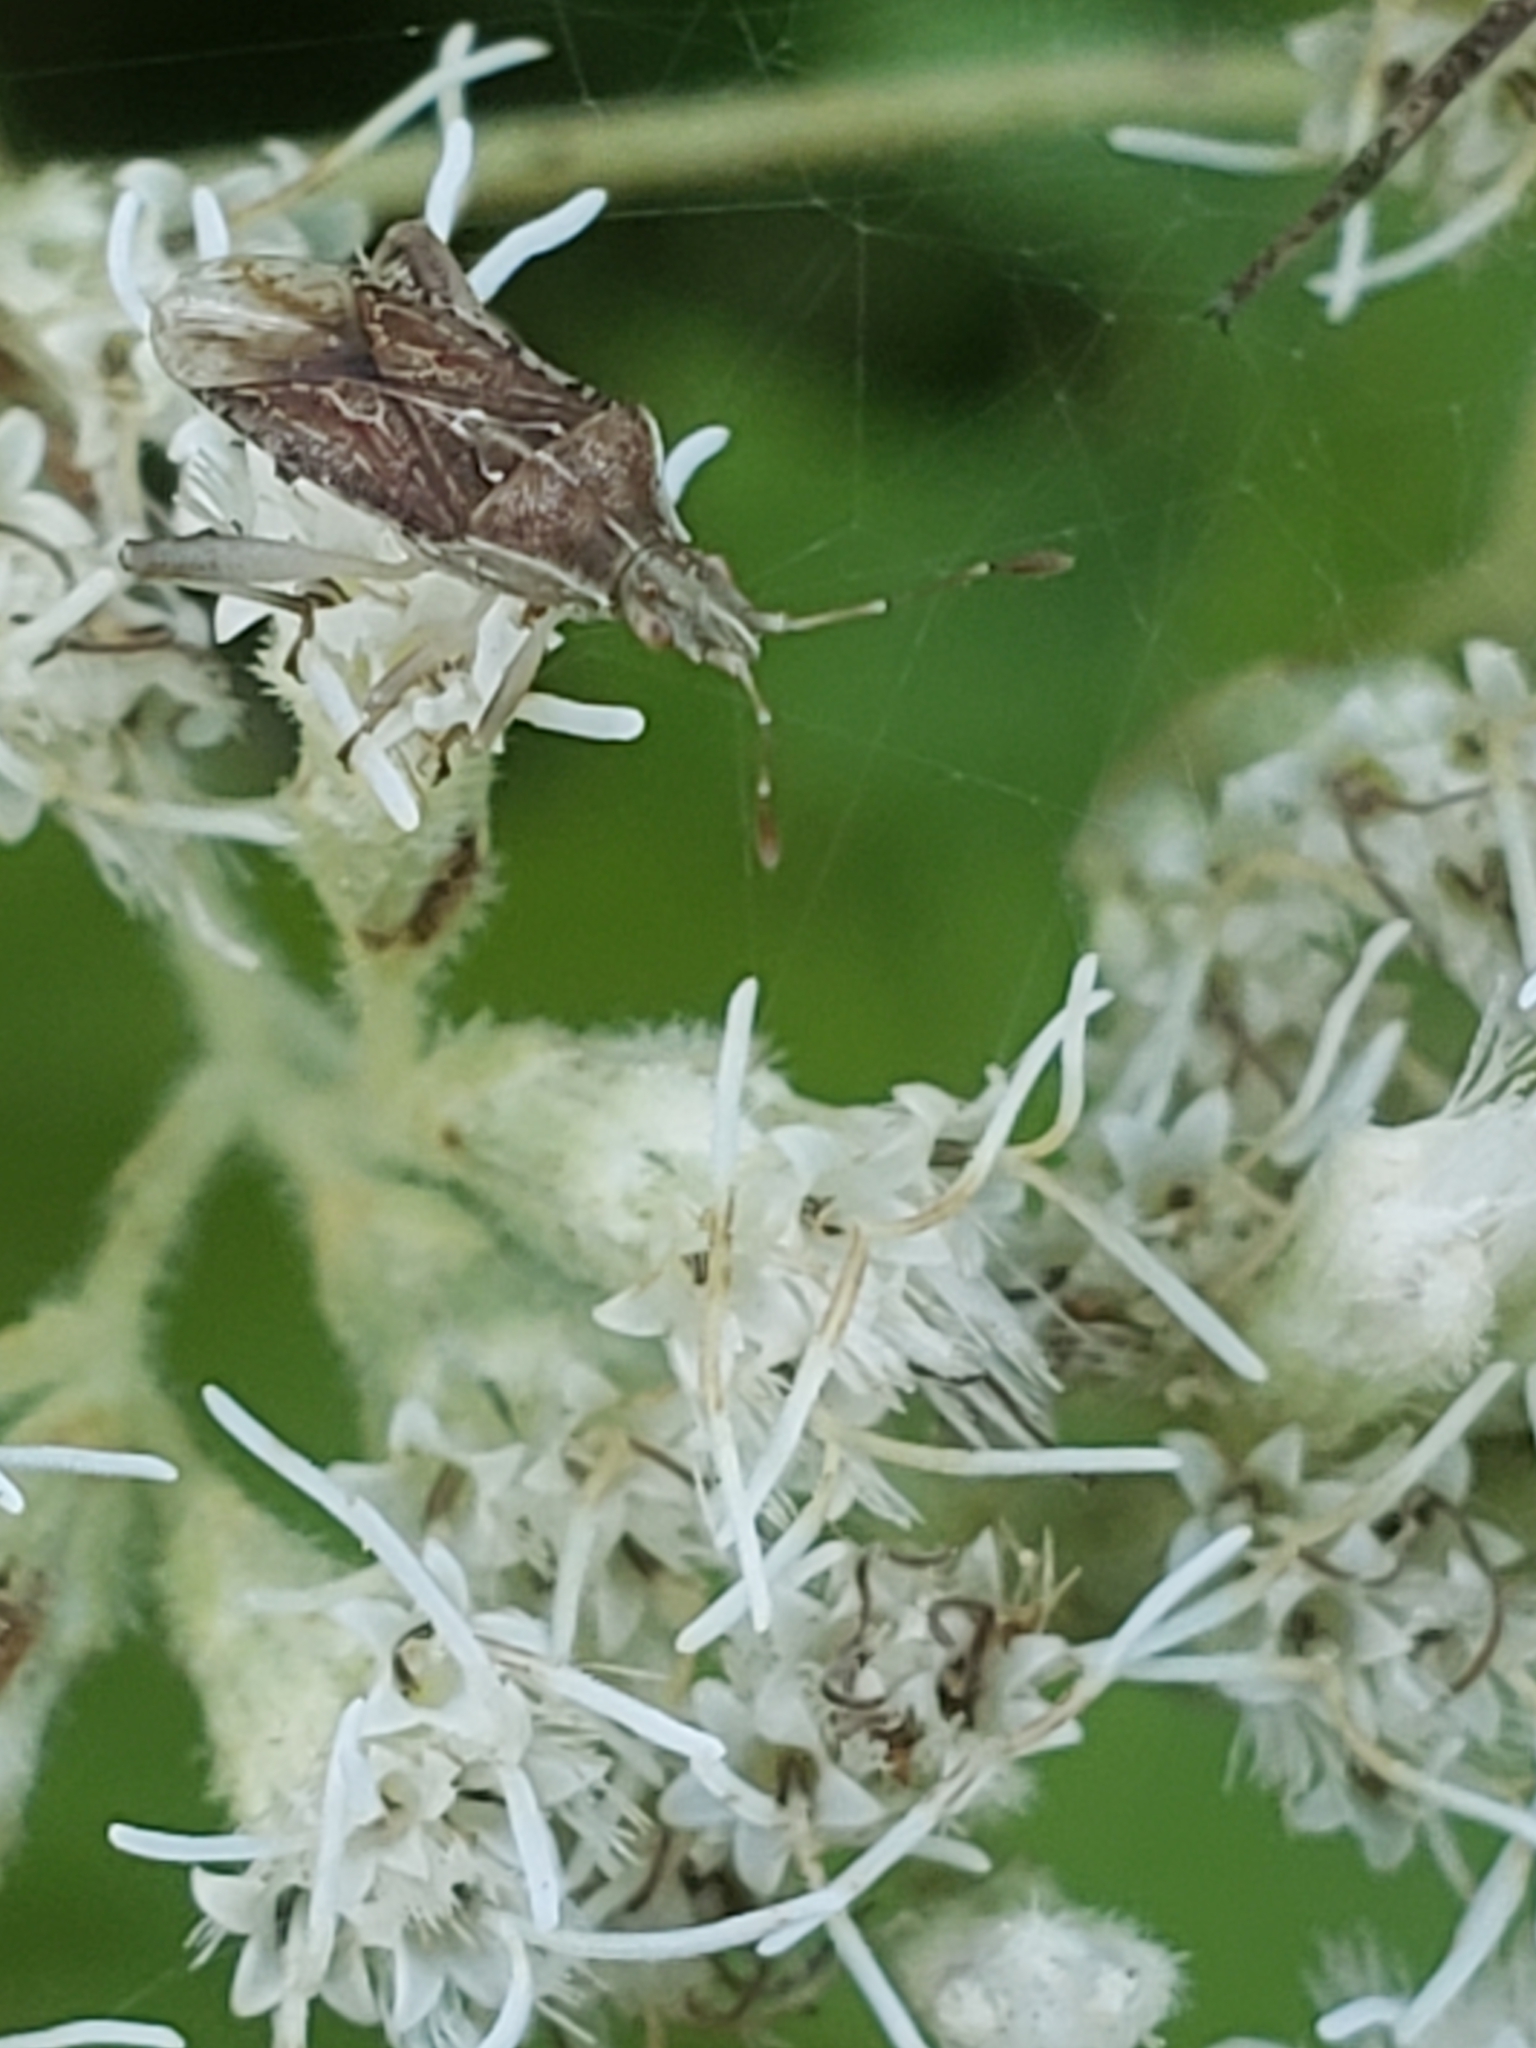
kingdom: Animalia
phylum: Arthropoda
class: Insecta
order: Hemiptera
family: Rhopalidae
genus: Harmostes
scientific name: Harmostes fraterculus
